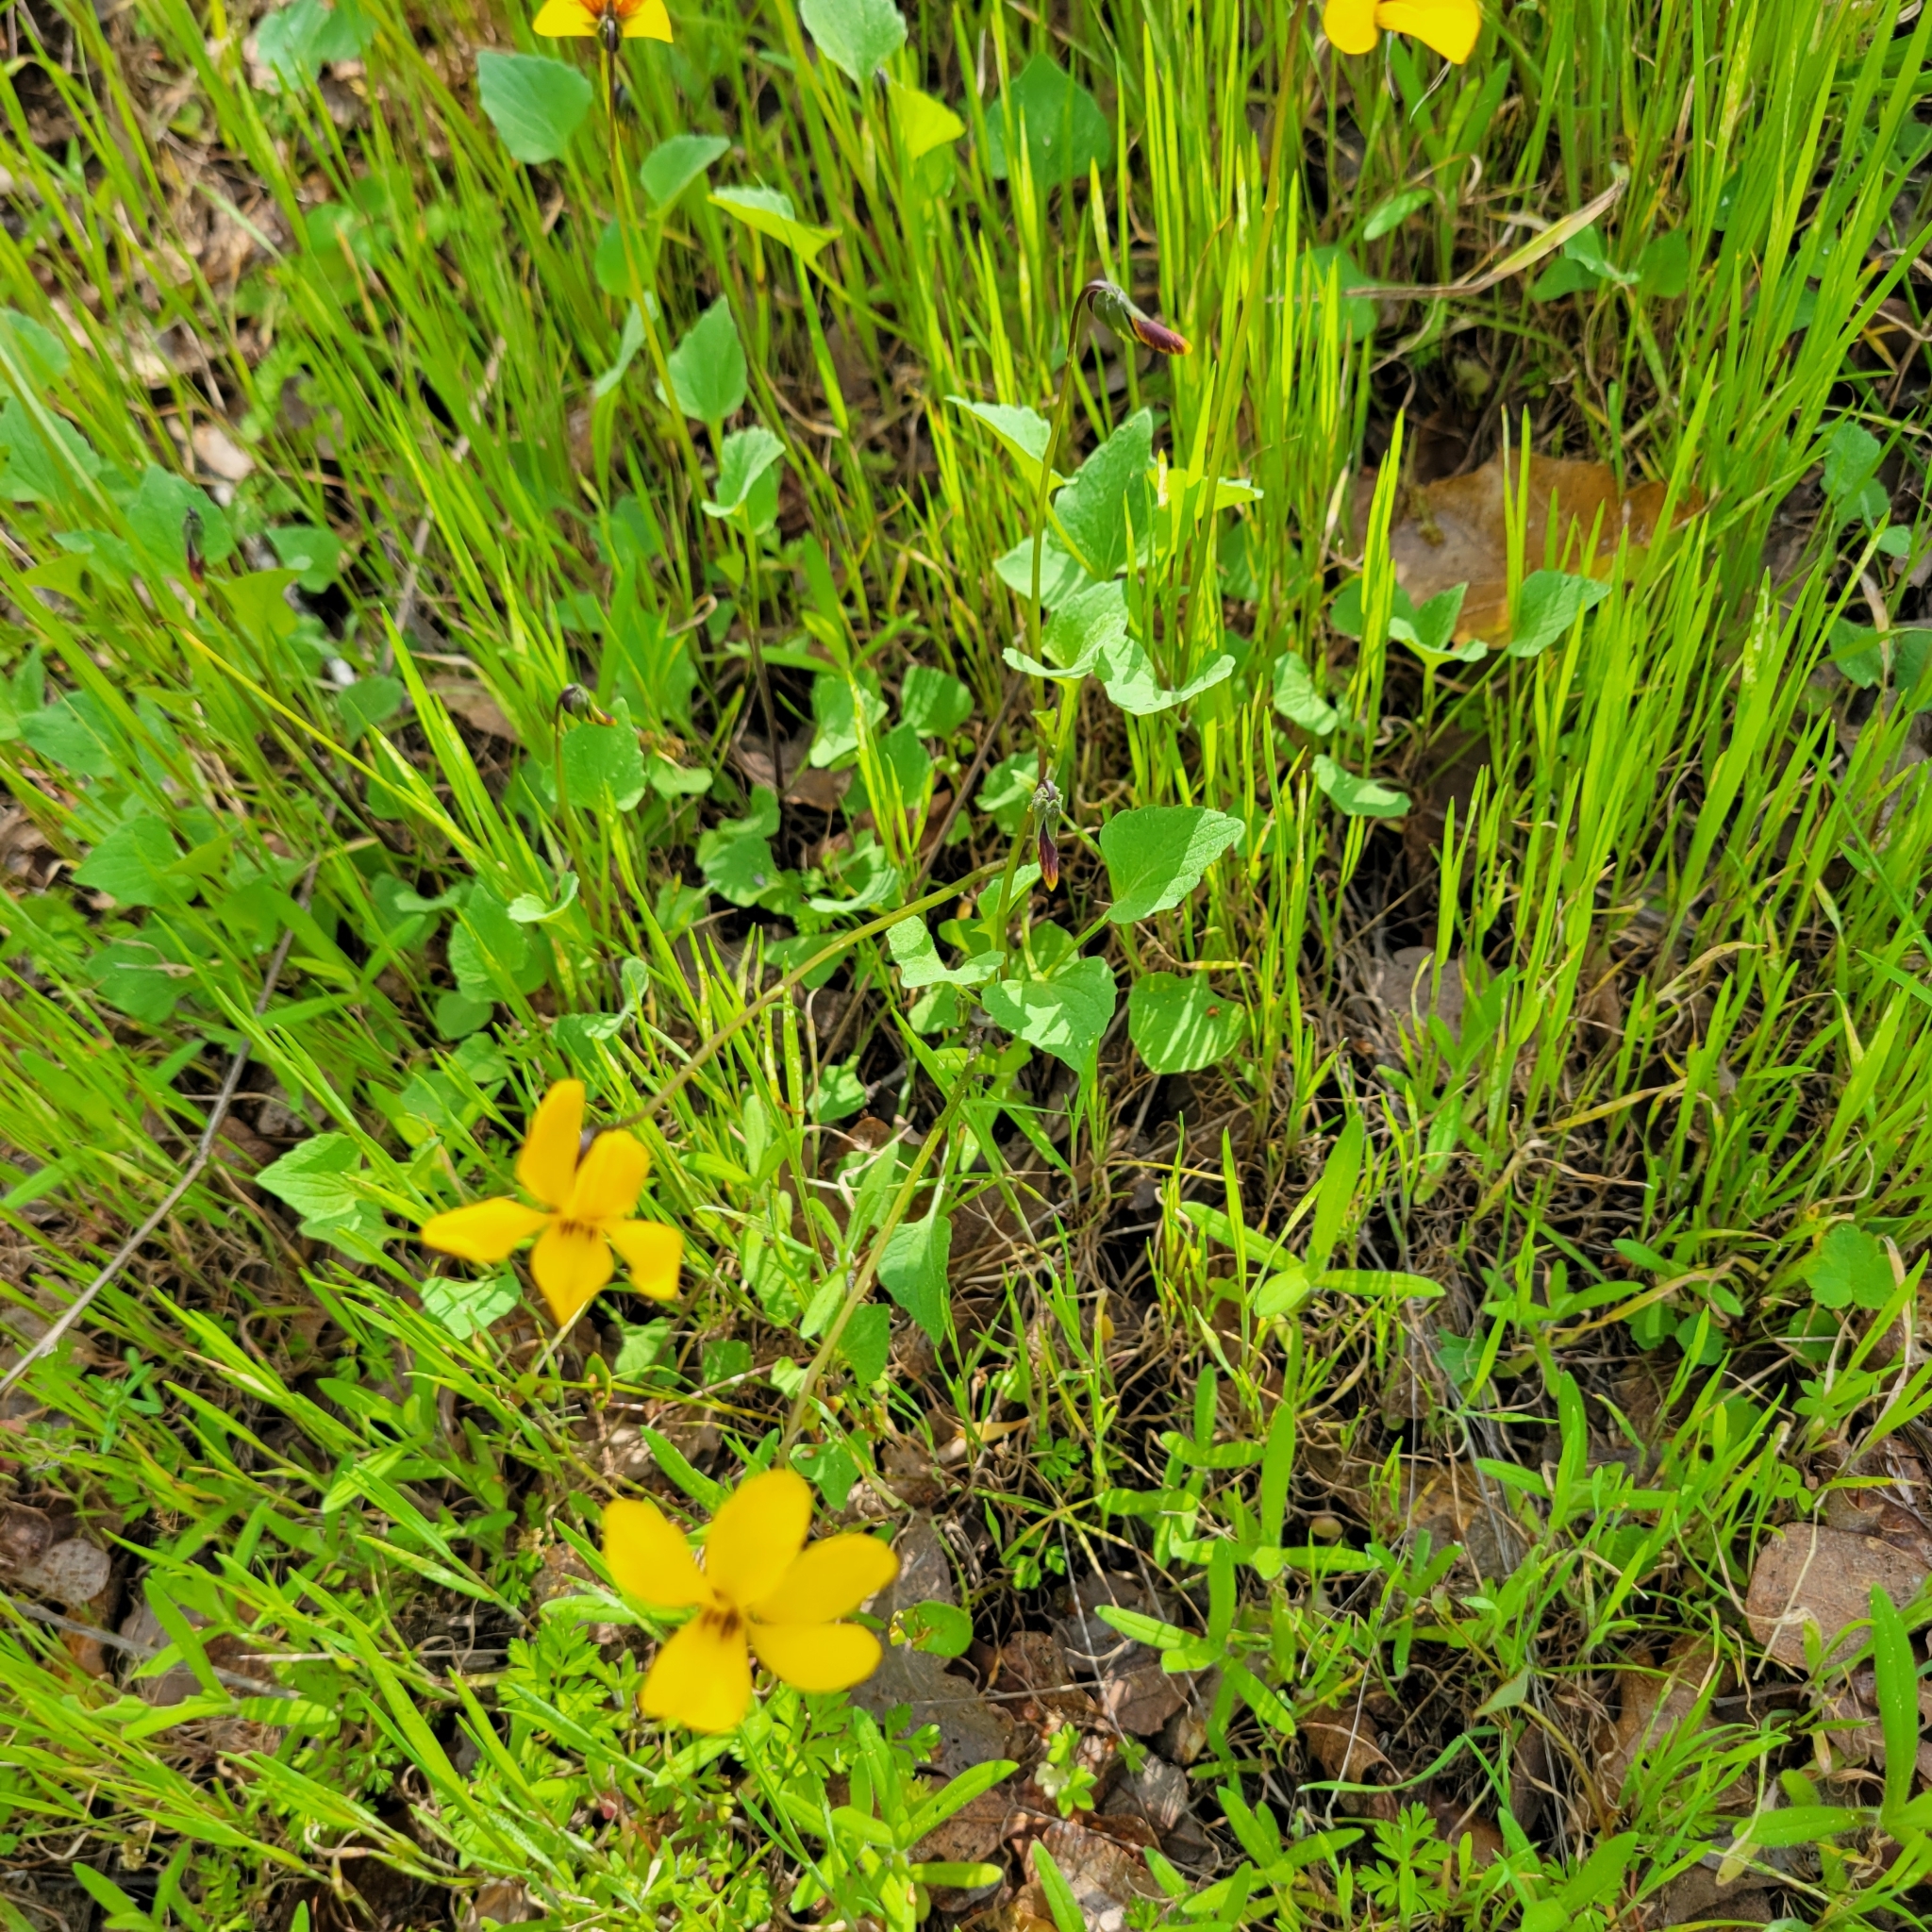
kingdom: Plantae
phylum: Tracheophyta
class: Magnoliopsida
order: Malpighiales
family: Violaceae
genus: Viola
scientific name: Viola pedunculata
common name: California golden violet
